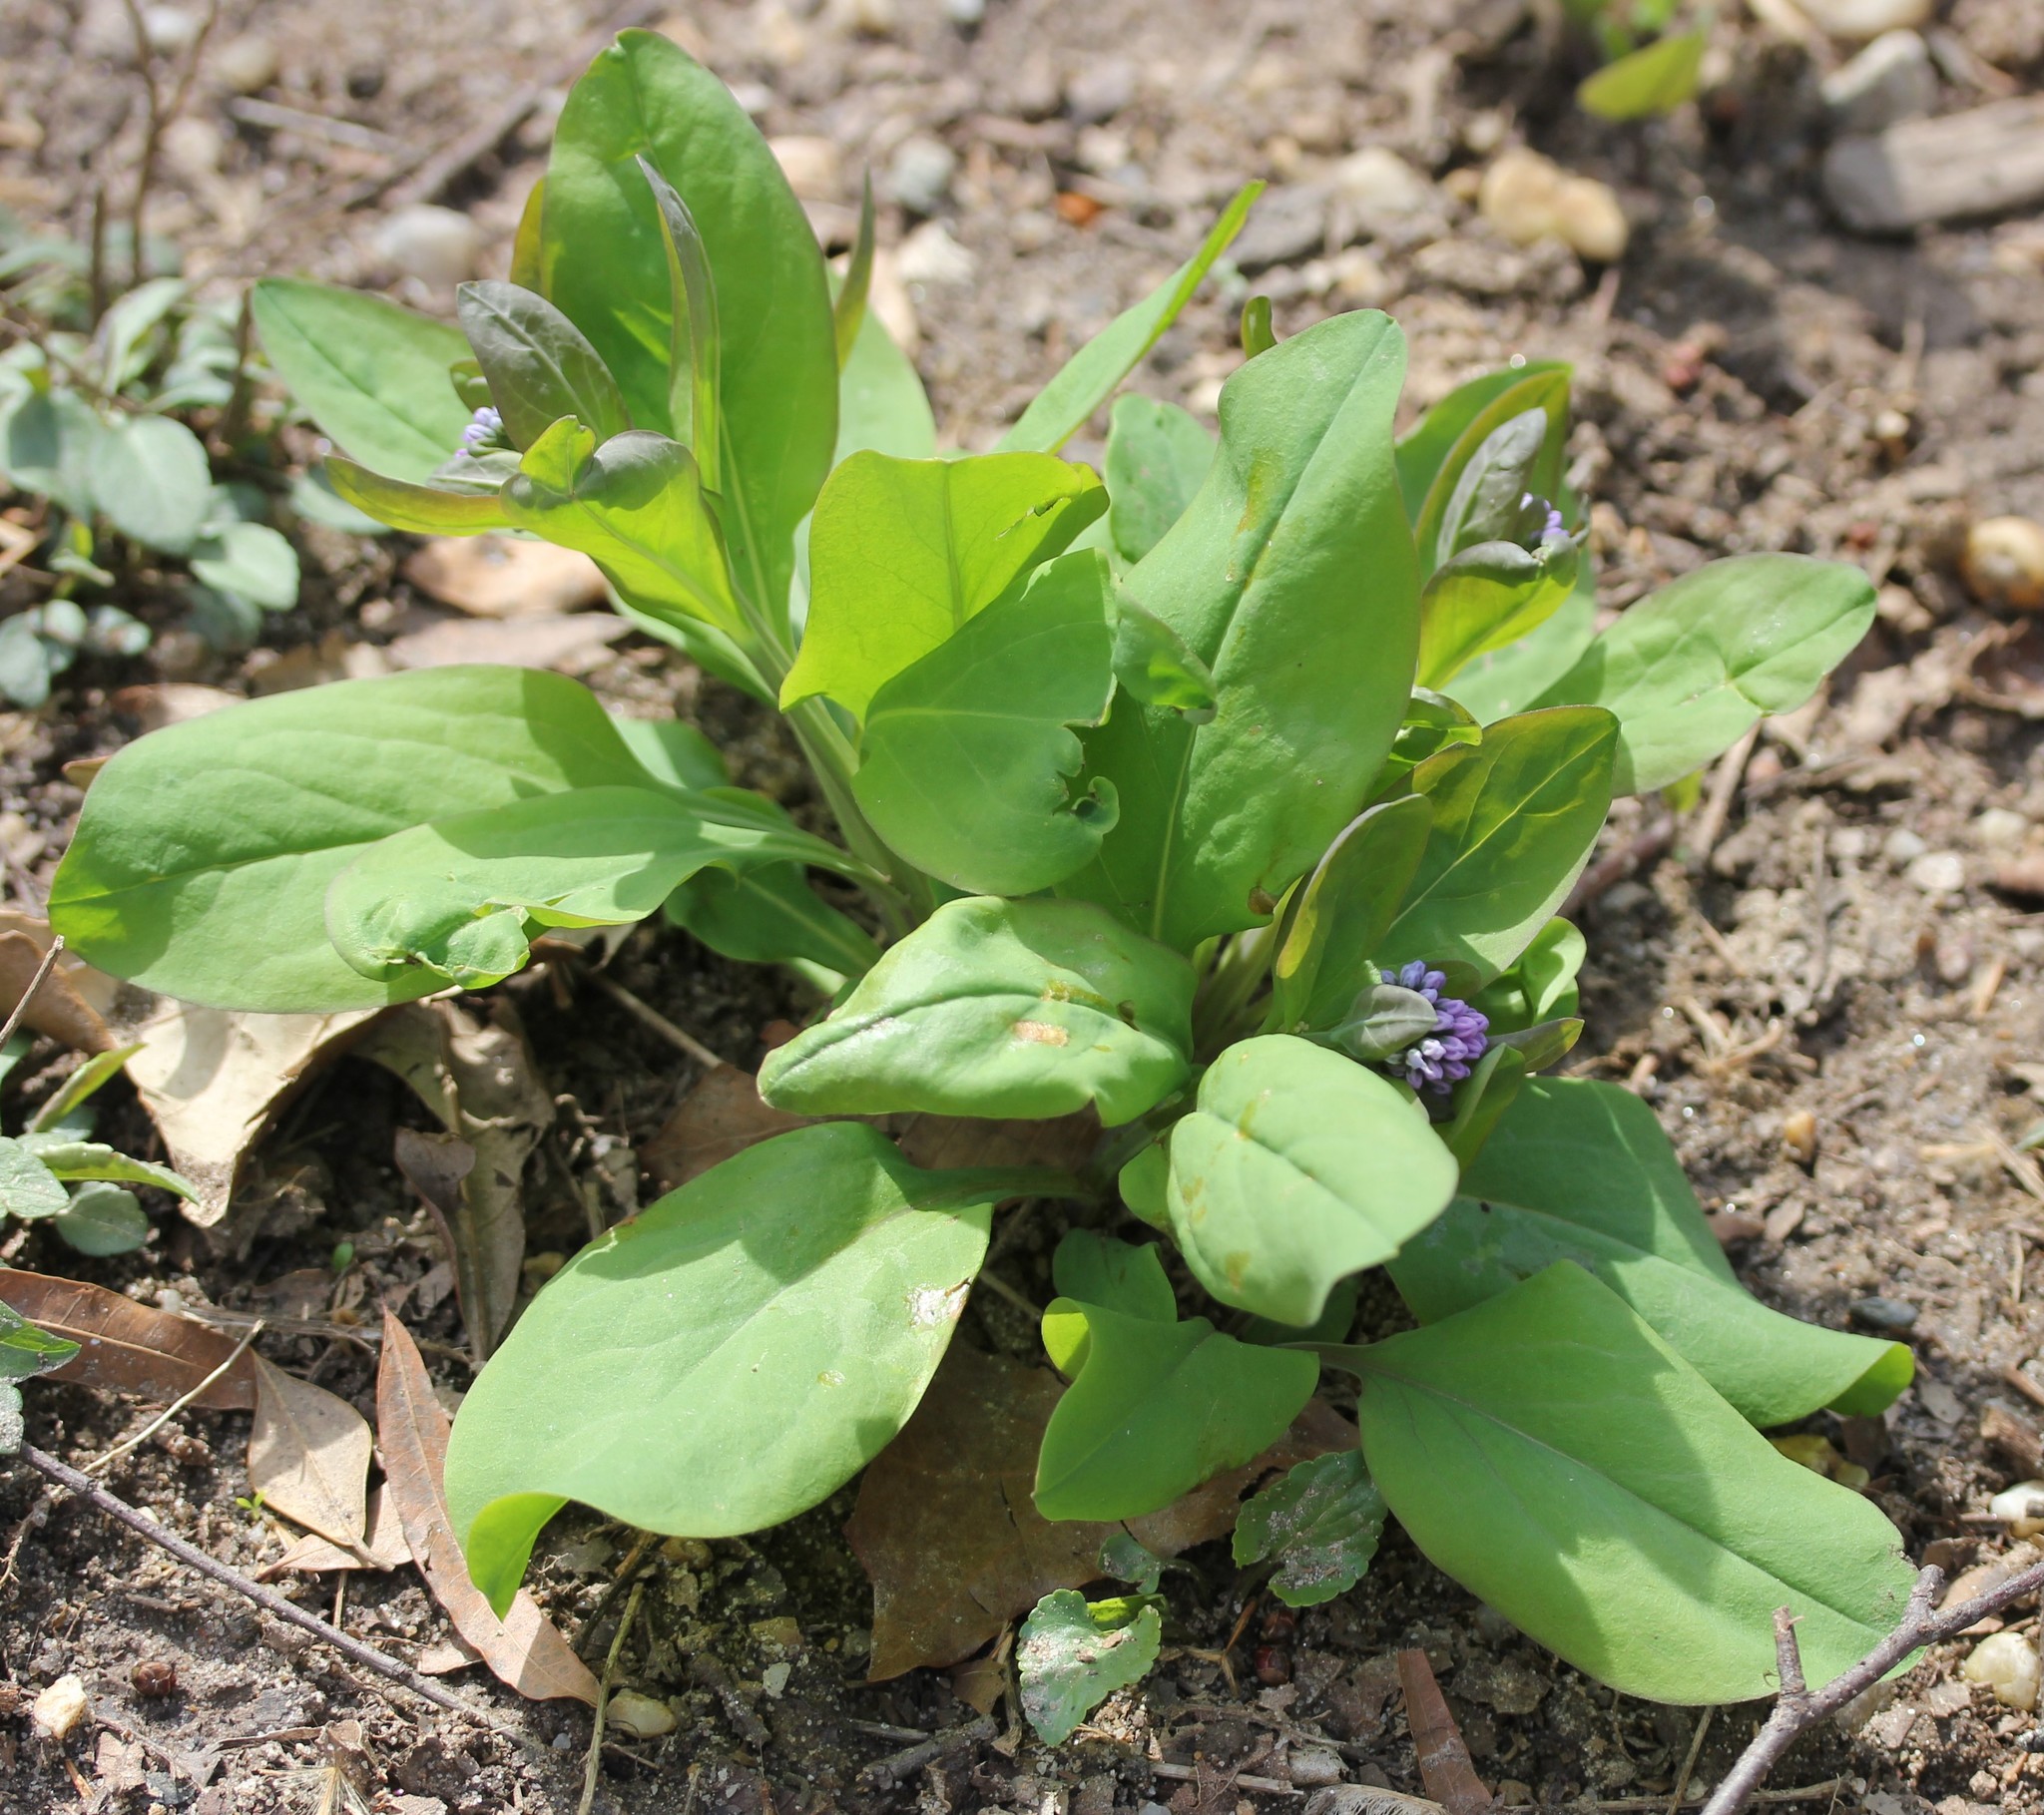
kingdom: Plantae
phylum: Tracheophyta
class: Magnoliopsida
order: Boraginales
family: Boraginaceae
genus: Mertensia
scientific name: Mertensia virginica
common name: Virginia bluebells
